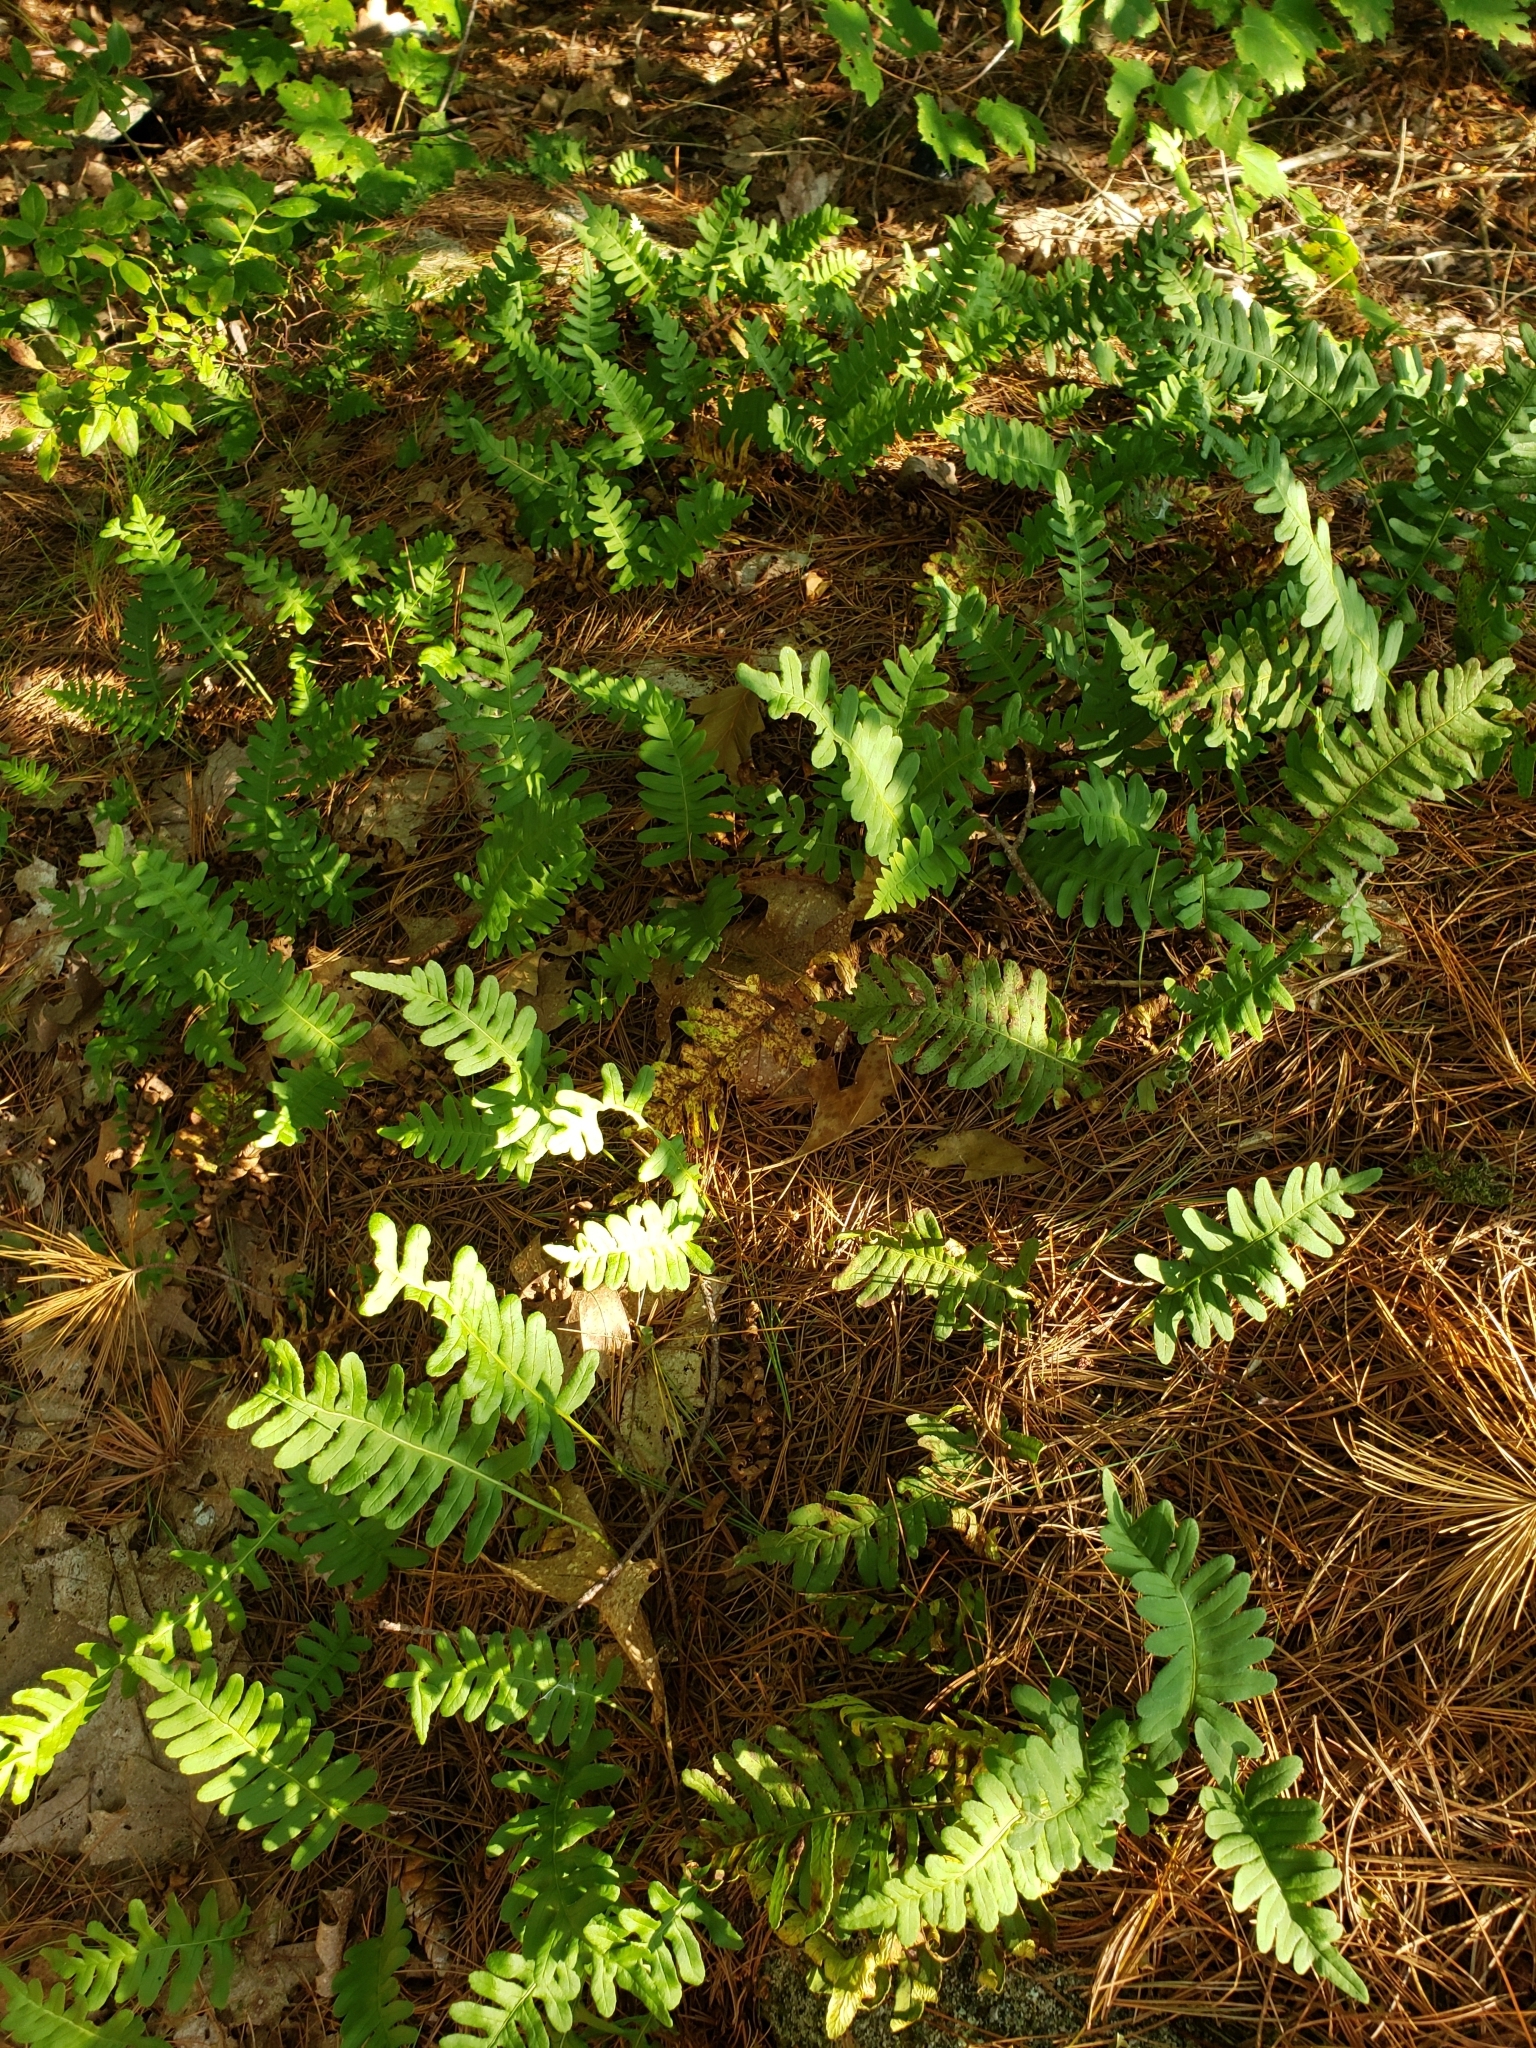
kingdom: Plantae
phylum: Tracheophyta
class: Polypodiopsida
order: Polypodiales
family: Polypodiaceae
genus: Polypodium
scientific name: Polypodium virginianum
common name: American wall fern
